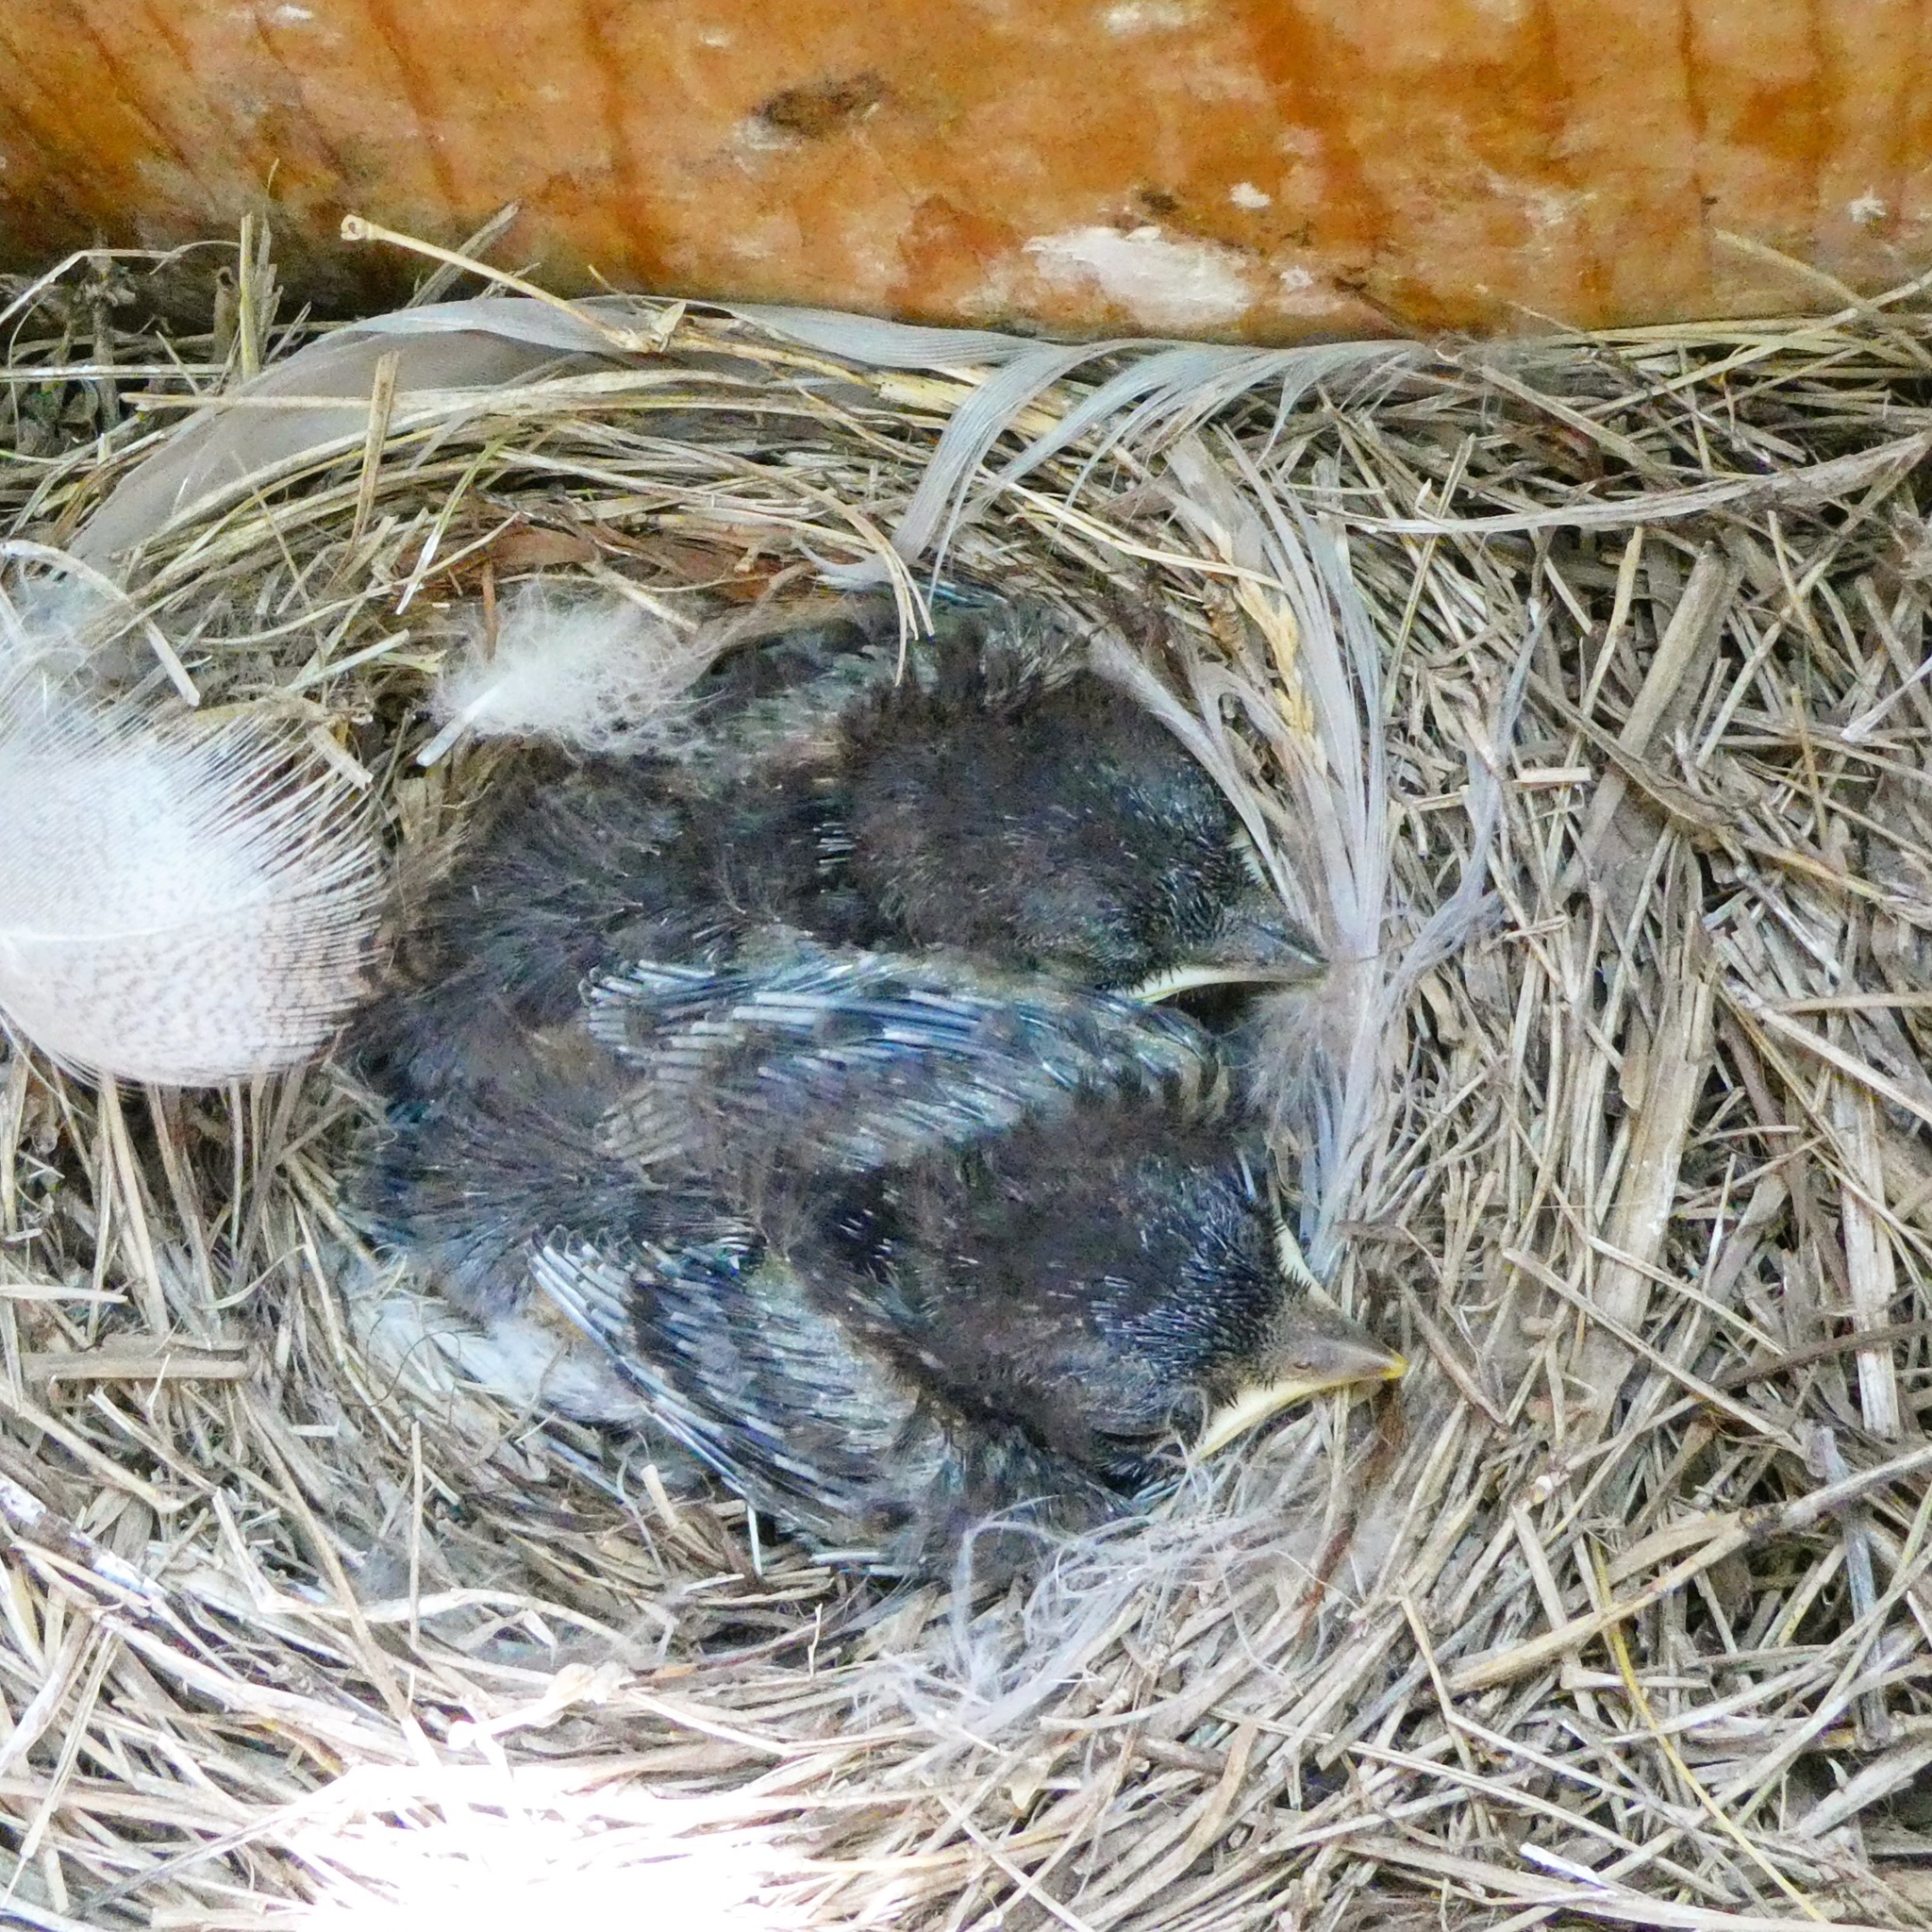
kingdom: Animalia
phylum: Chordata
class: Aves
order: Passeriformes
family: Turdidae
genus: Sialia
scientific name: Sialia sialis
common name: Eastern bluebird
